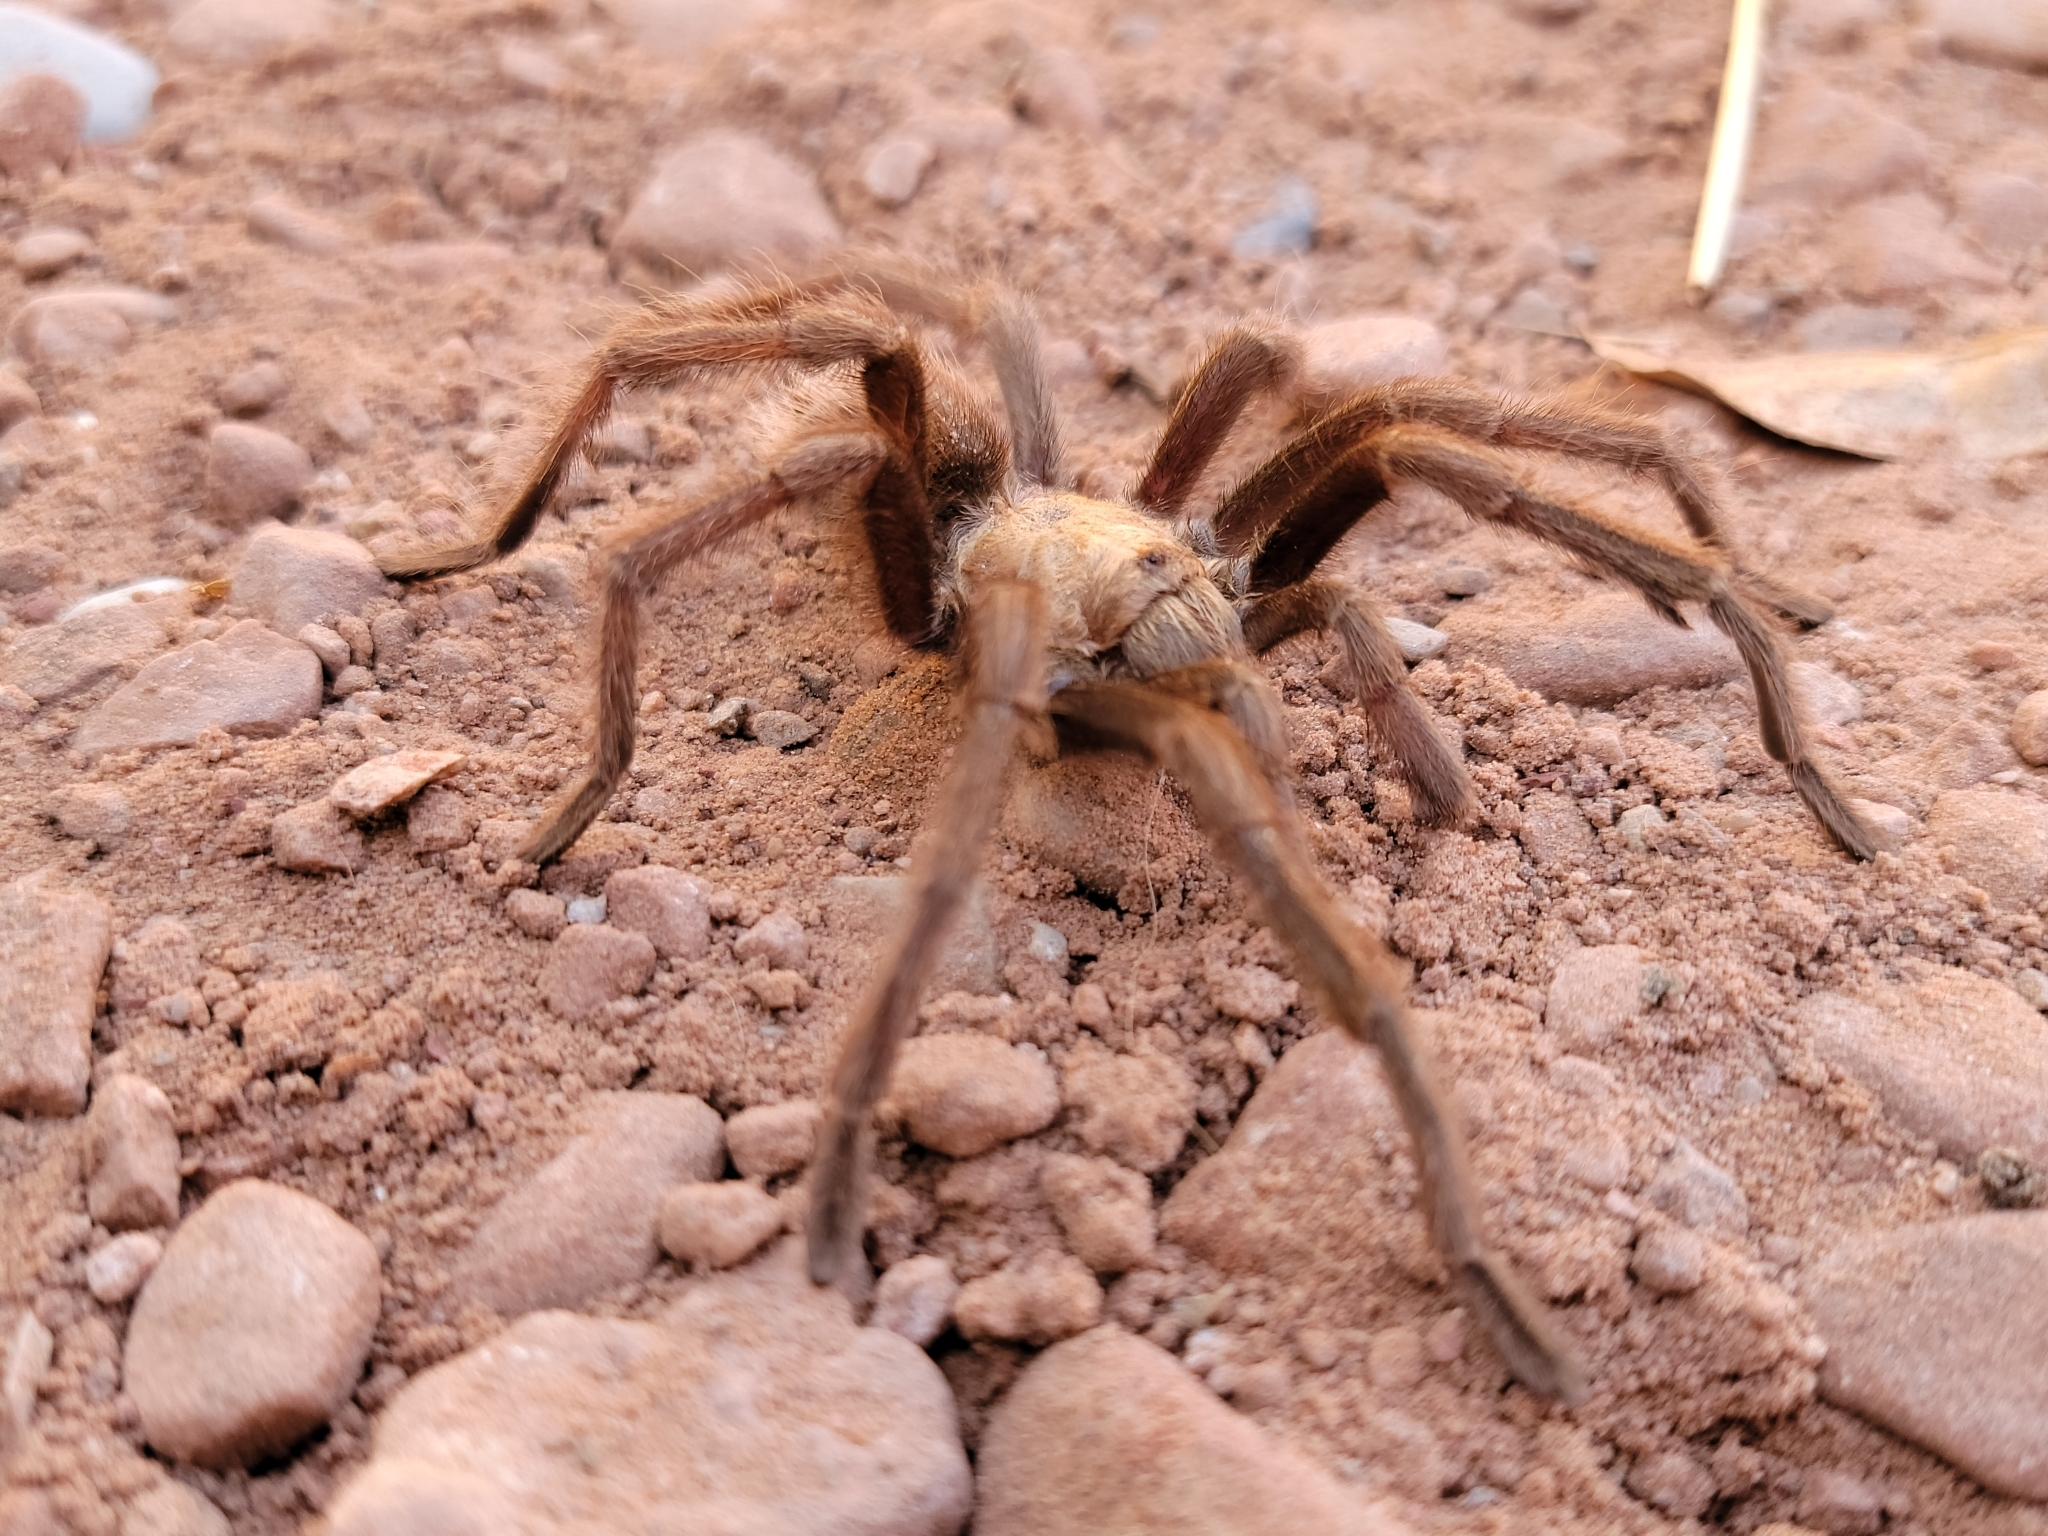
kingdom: Animalia
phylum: Arthropoda
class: Arachnida
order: Araneae
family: Theraphosidae
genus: Aphonopelma
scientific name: Aphonopelma iodius
